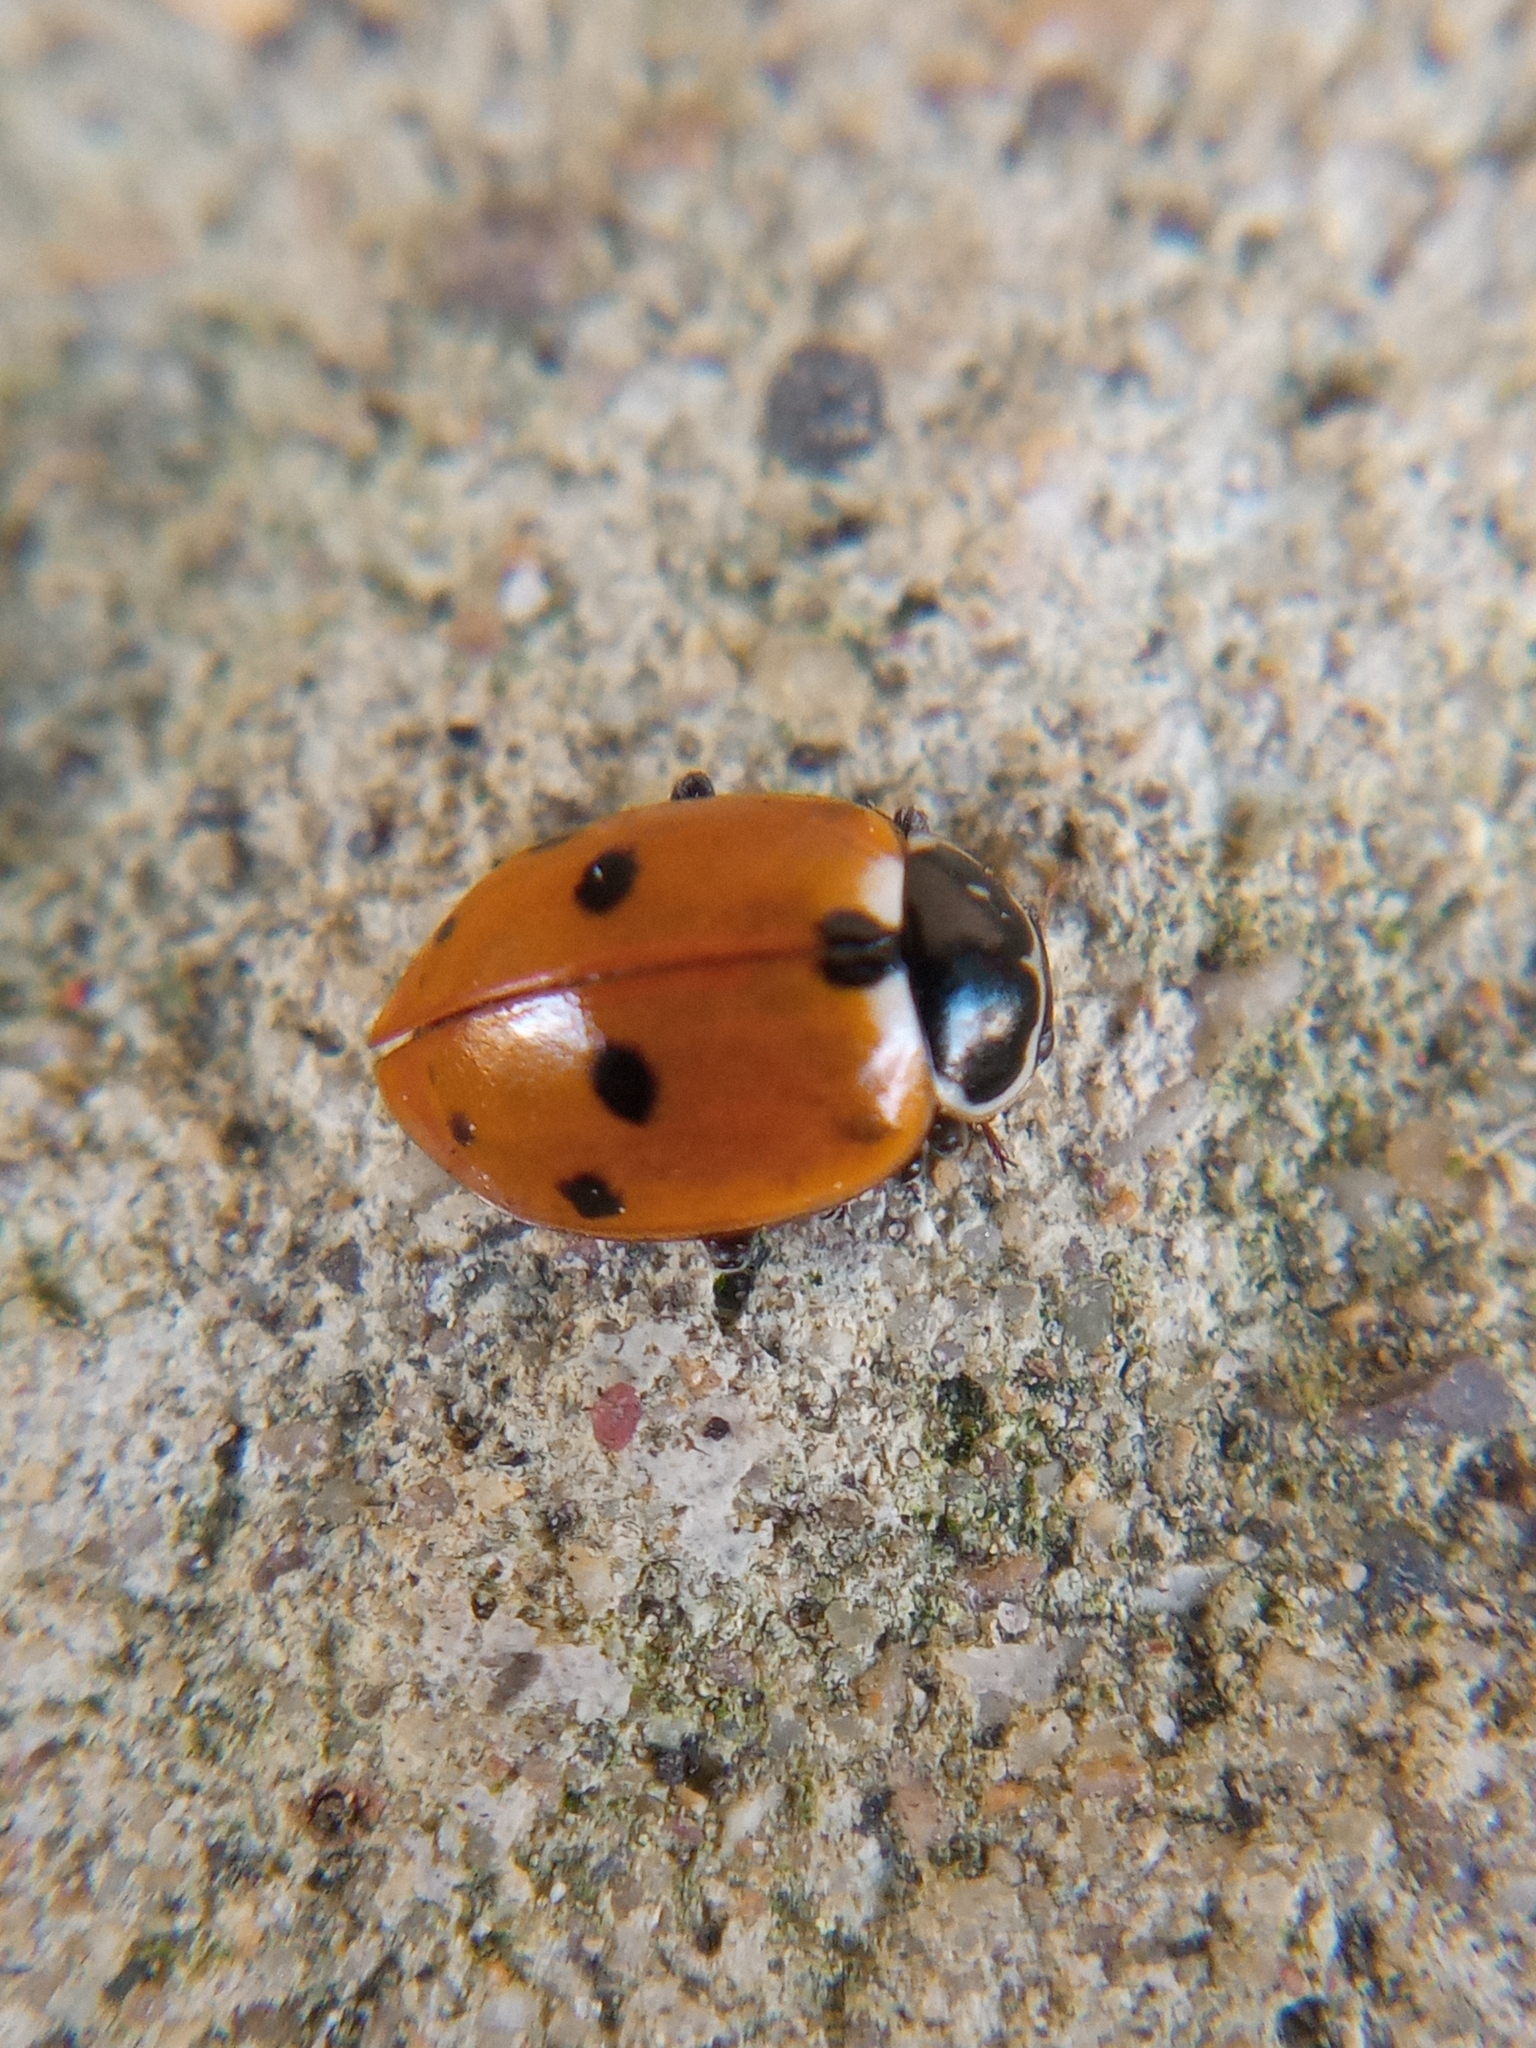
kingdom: Animalia
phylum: Arthropoda
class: Insecta
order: Coleoptera
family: Coccinellidae
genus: Hippodamia
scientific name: Hippodamia variegata
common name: Ladybird beetle
